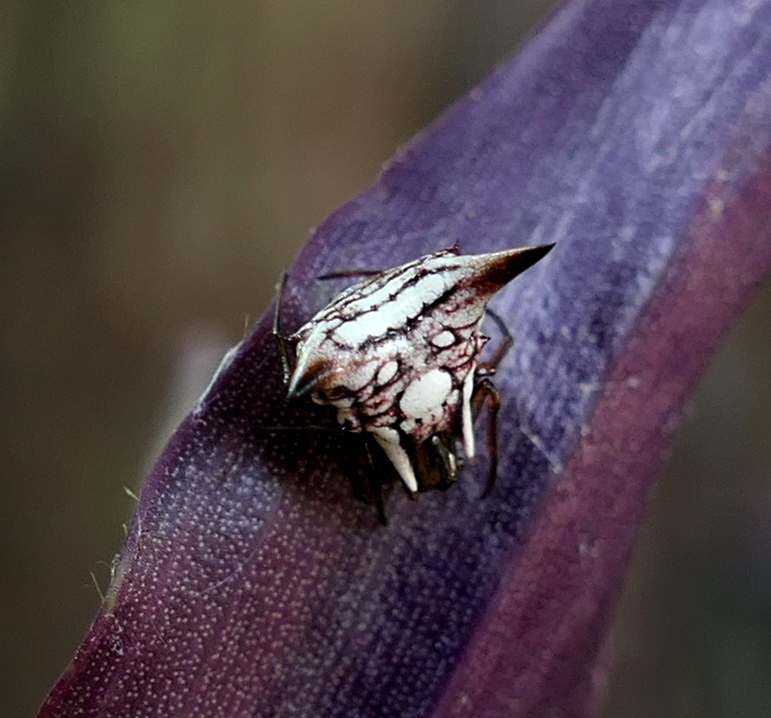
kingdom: Animalia
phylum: Arthropoda
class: Arachnida
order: Araneae
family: Araneidae
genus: Micrathena
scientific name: Micrathena evansi
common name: Orb weavers
